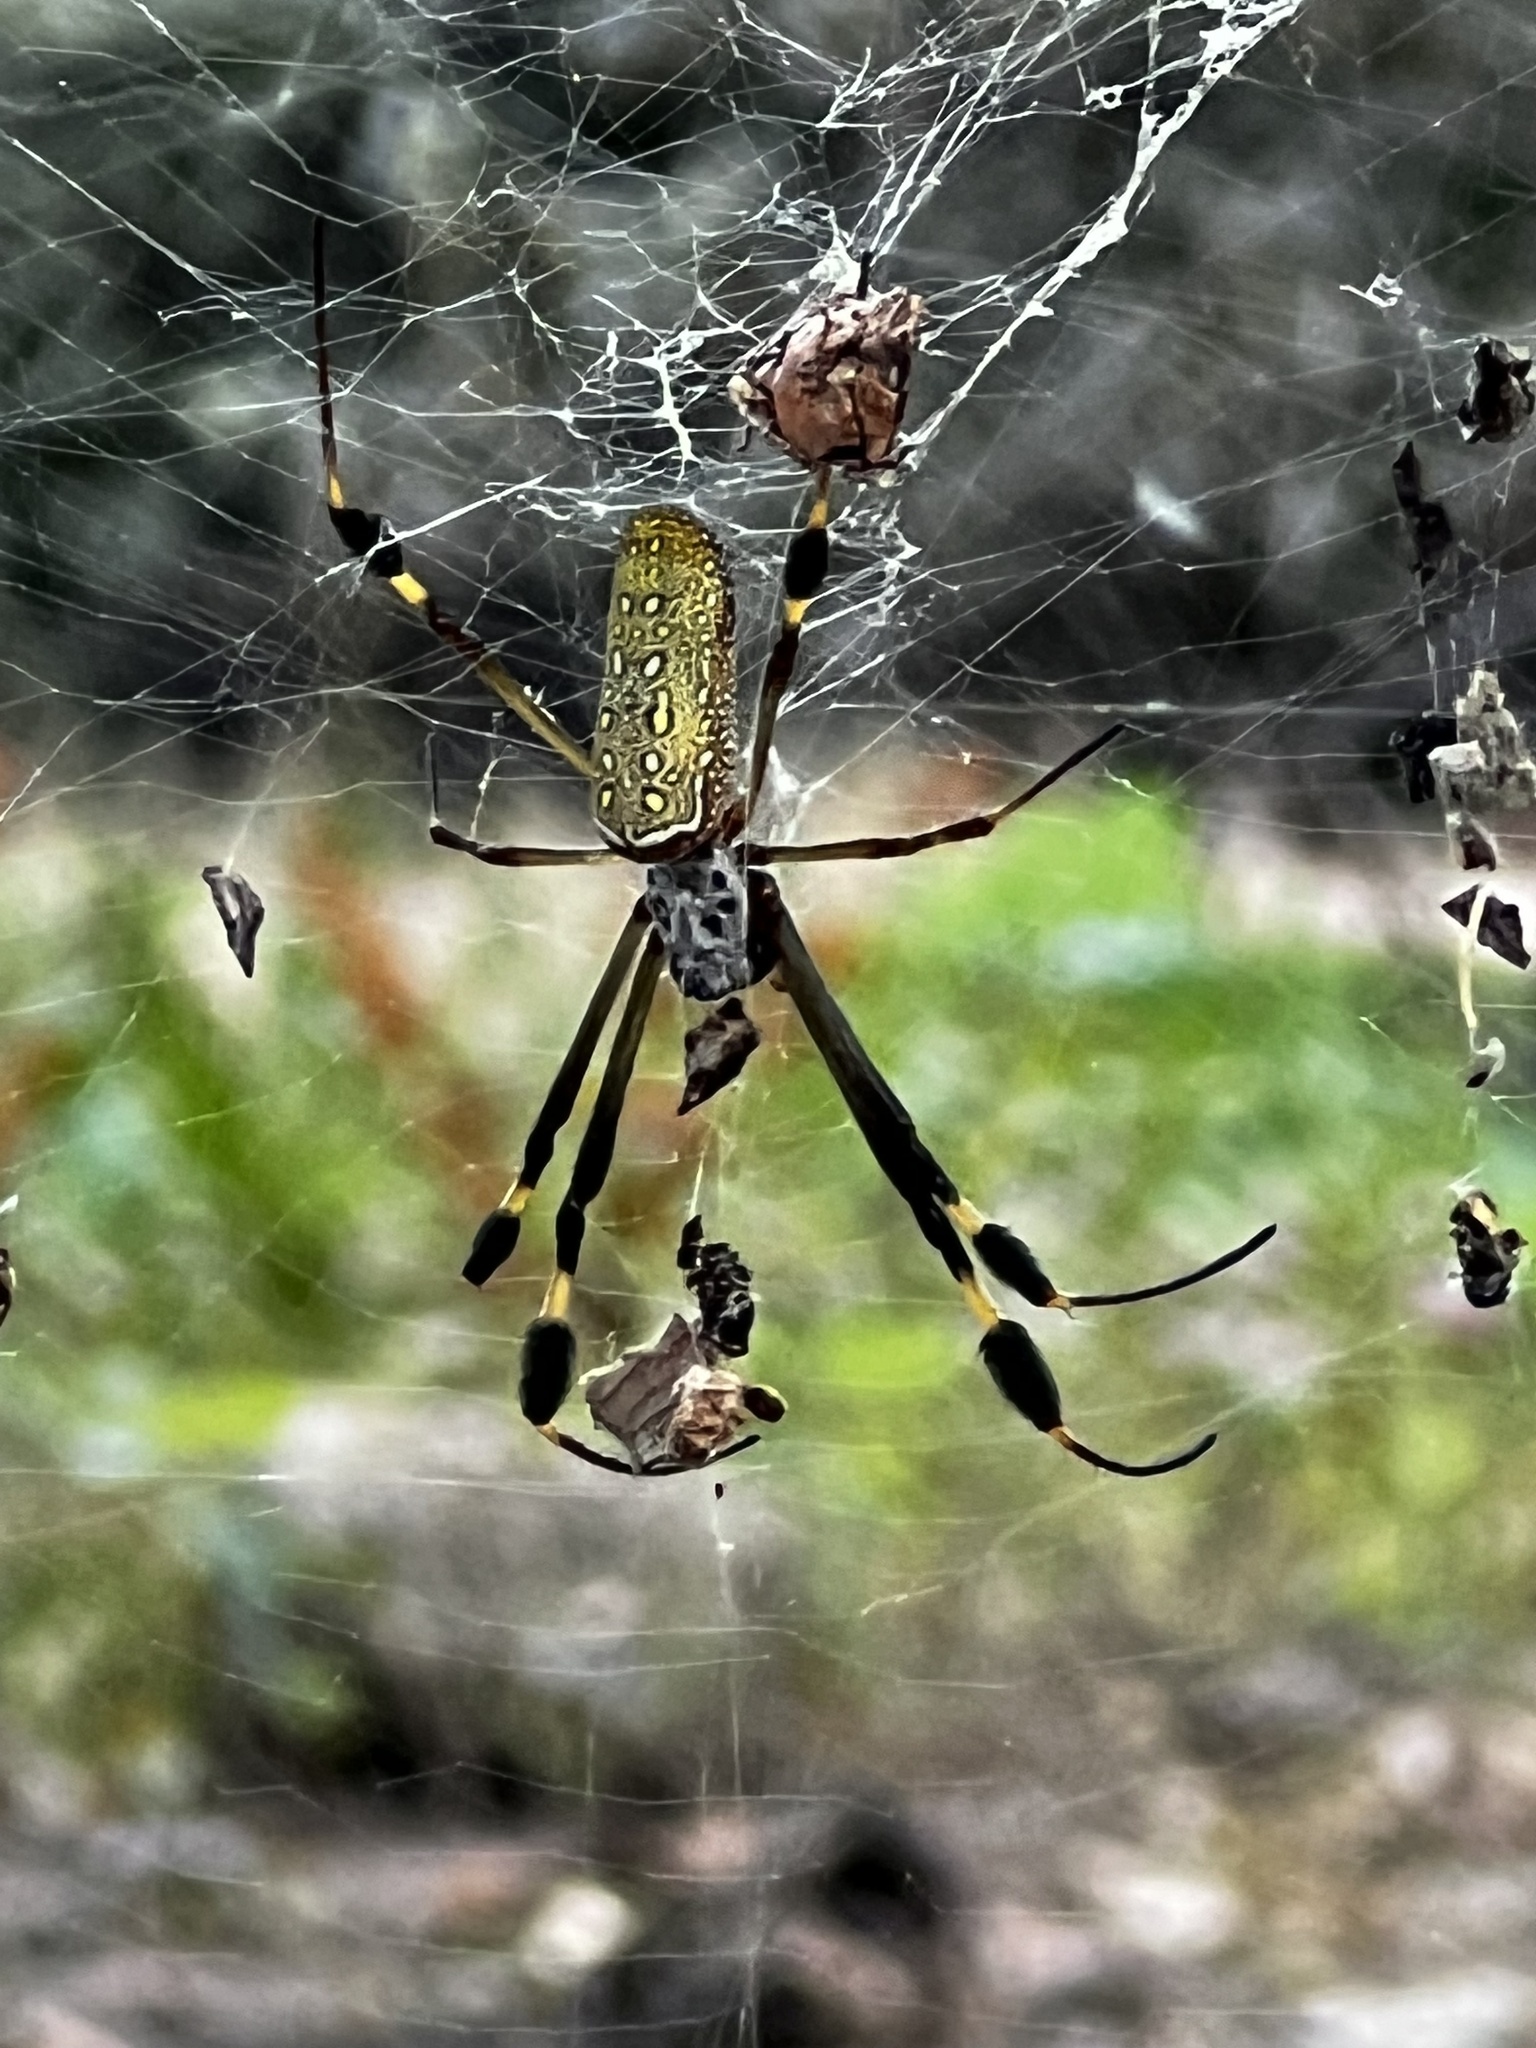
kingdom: Animalia
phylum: Arthropoda
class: Arachnida
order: Araneae
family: Araneidae
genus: Trichonephila
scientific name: Trichonephila clavipes
